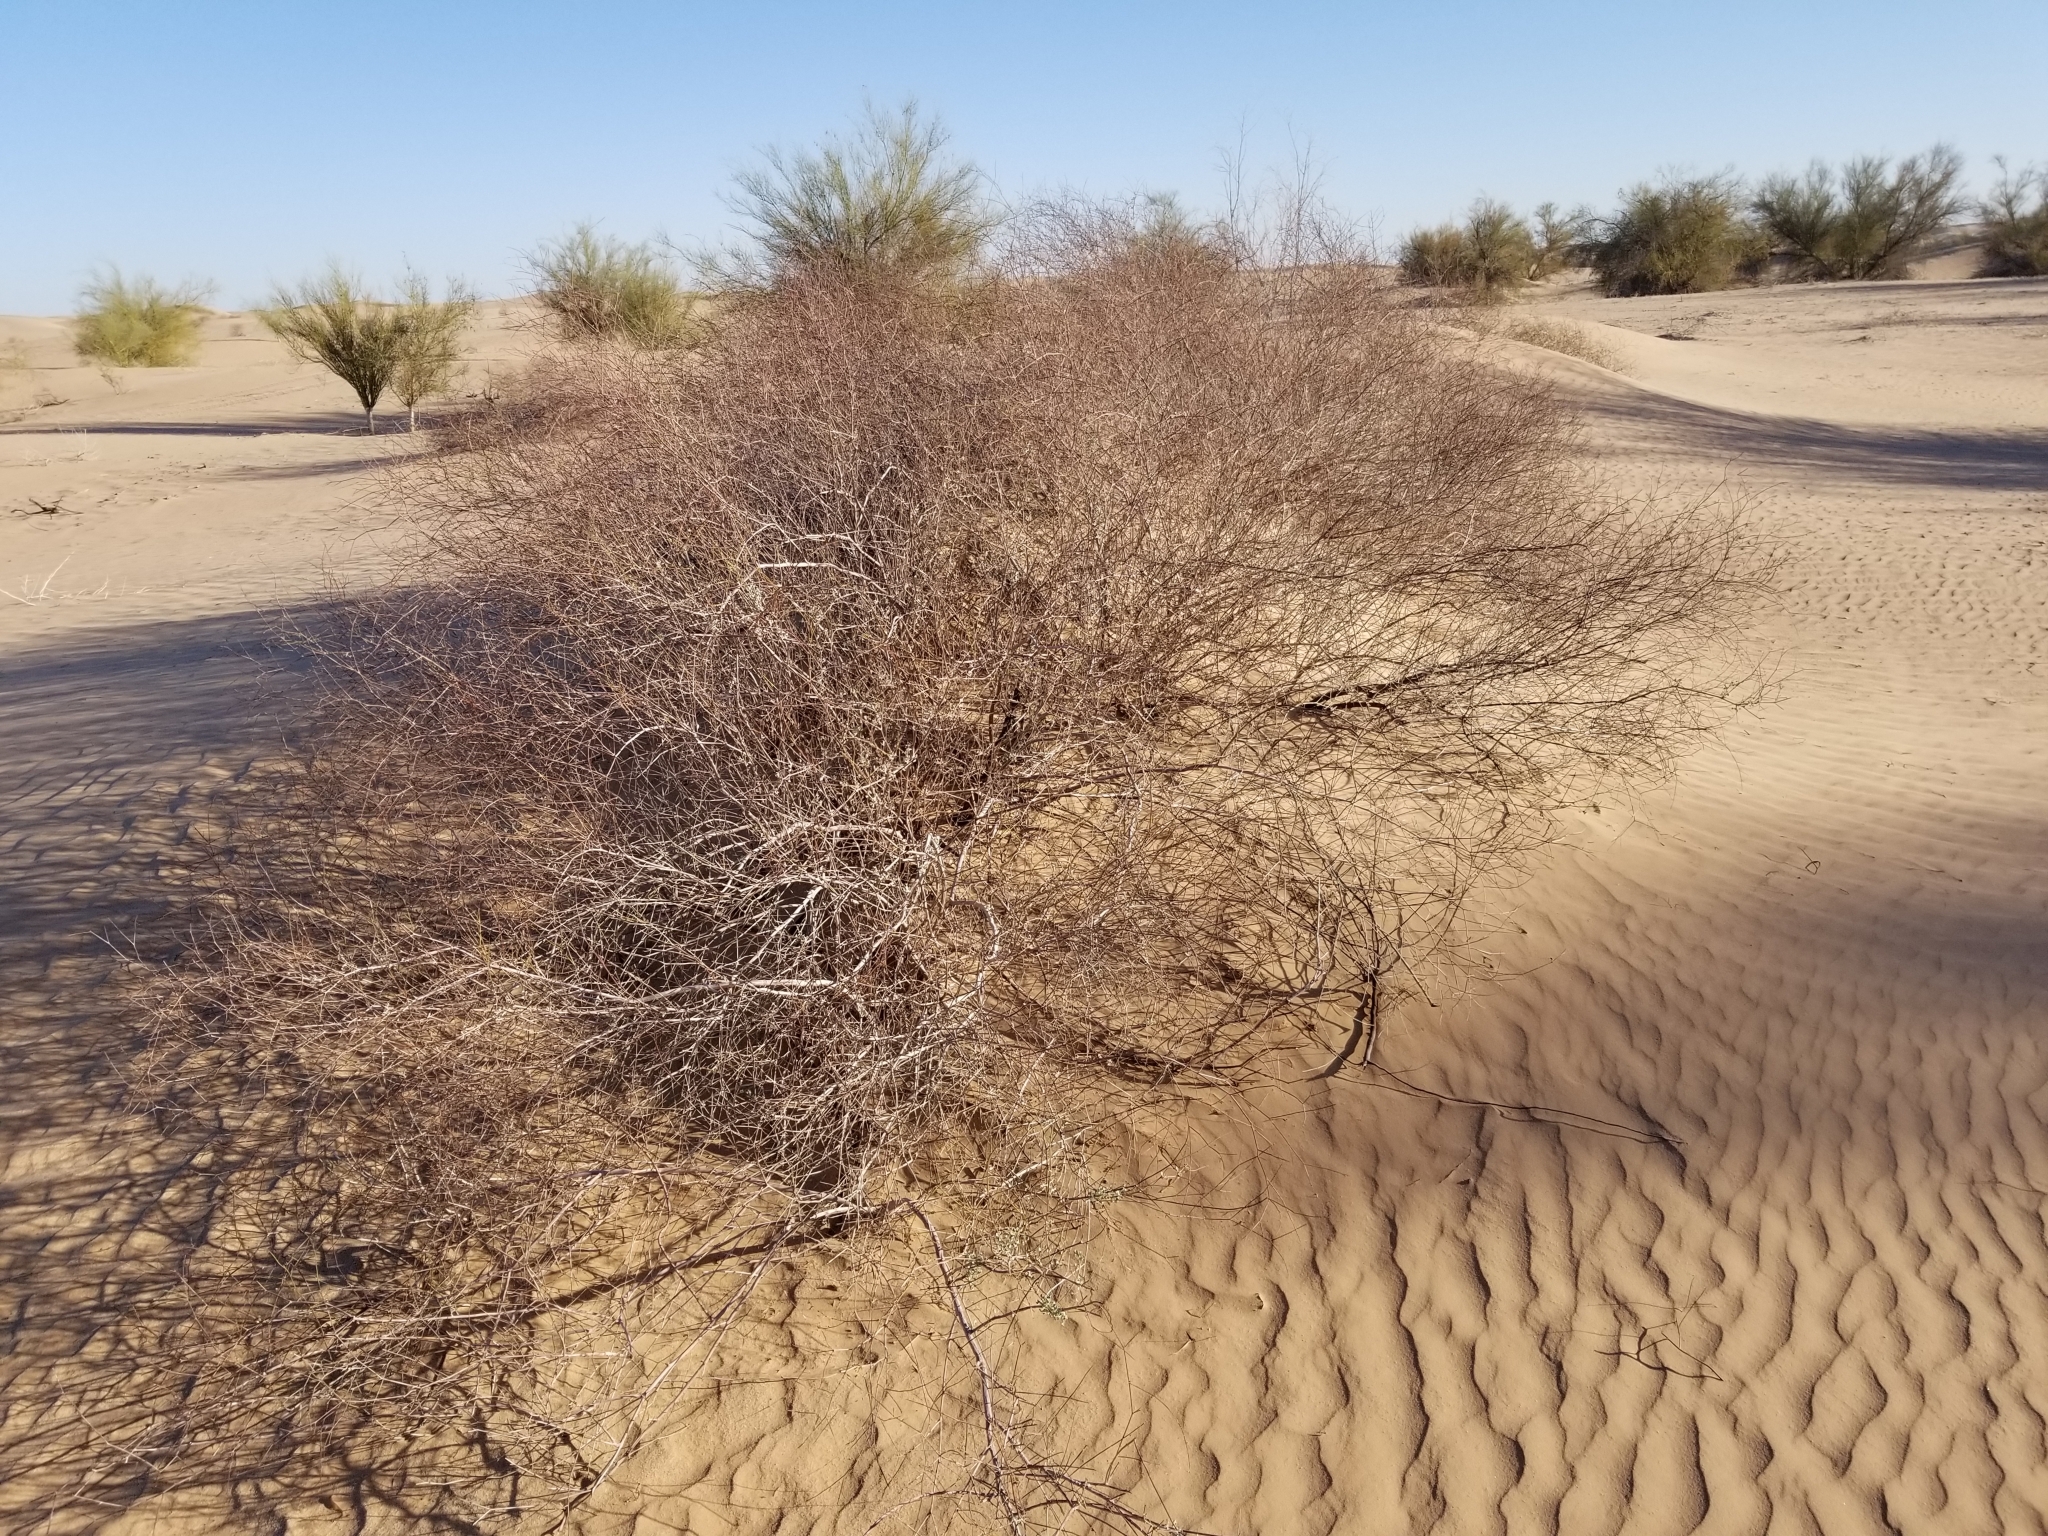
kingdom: Plantae
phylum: Tracheophyta
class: Magnoliopsida
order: Caryophyllales
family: Polygonaceae
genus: Eriogonum
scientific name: Eriogonum deserticola
